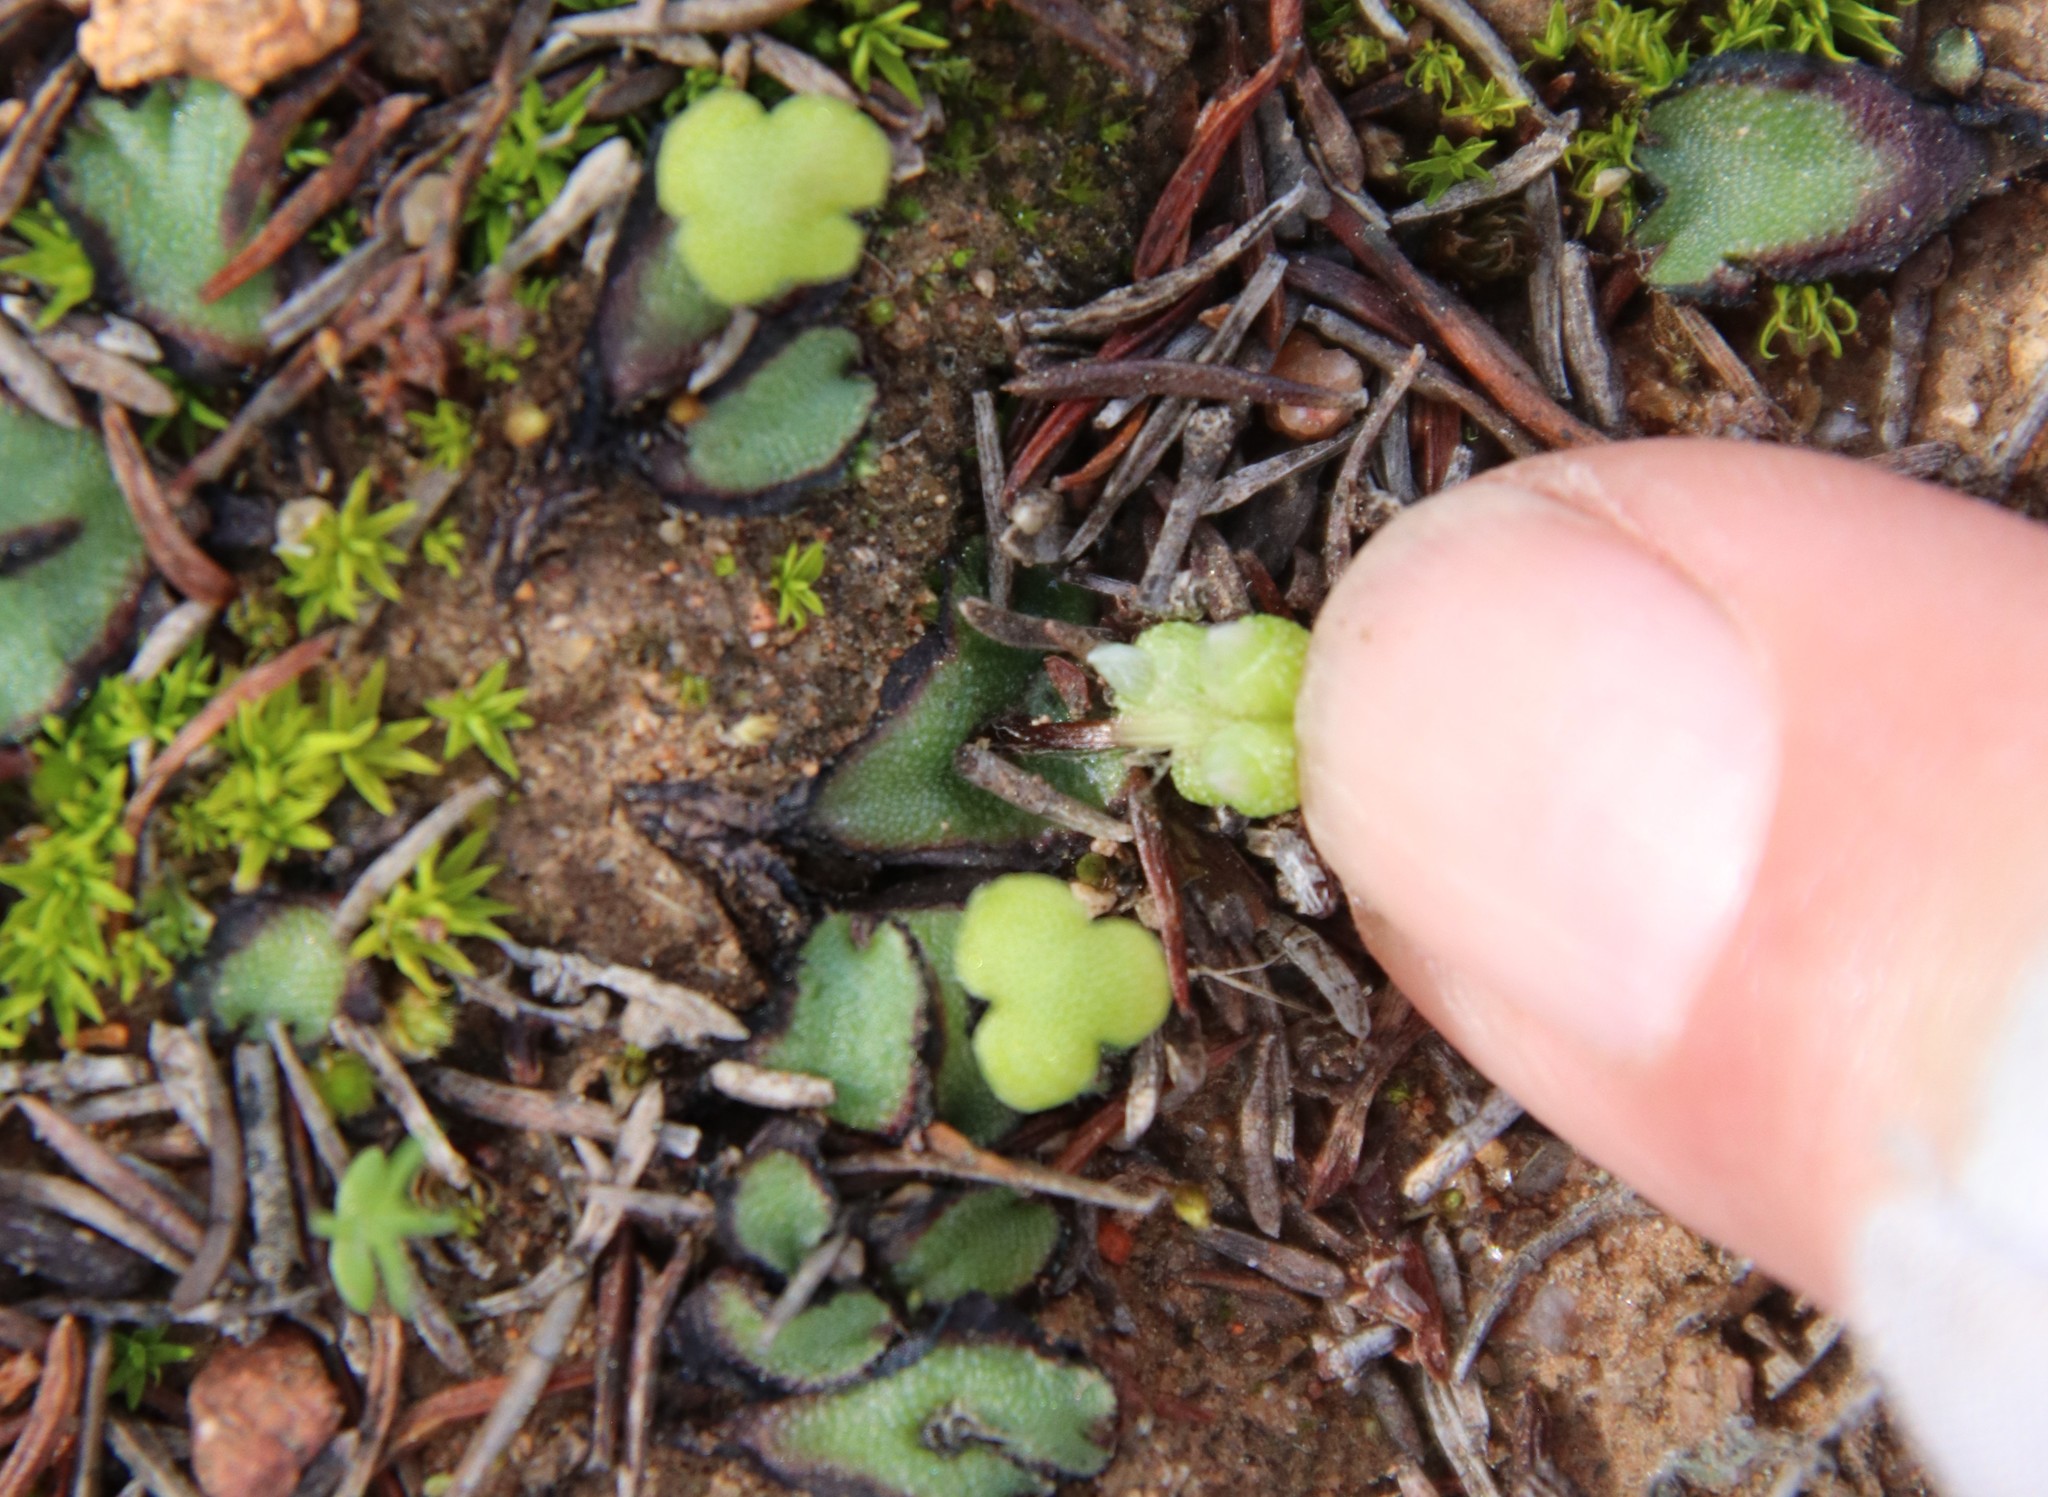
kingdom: Plantae
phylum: Marchantiophyta
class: Marchantiopsida
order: Marchantiales
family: Aytoniaceae
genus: Asterella
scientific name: Asterella californica
